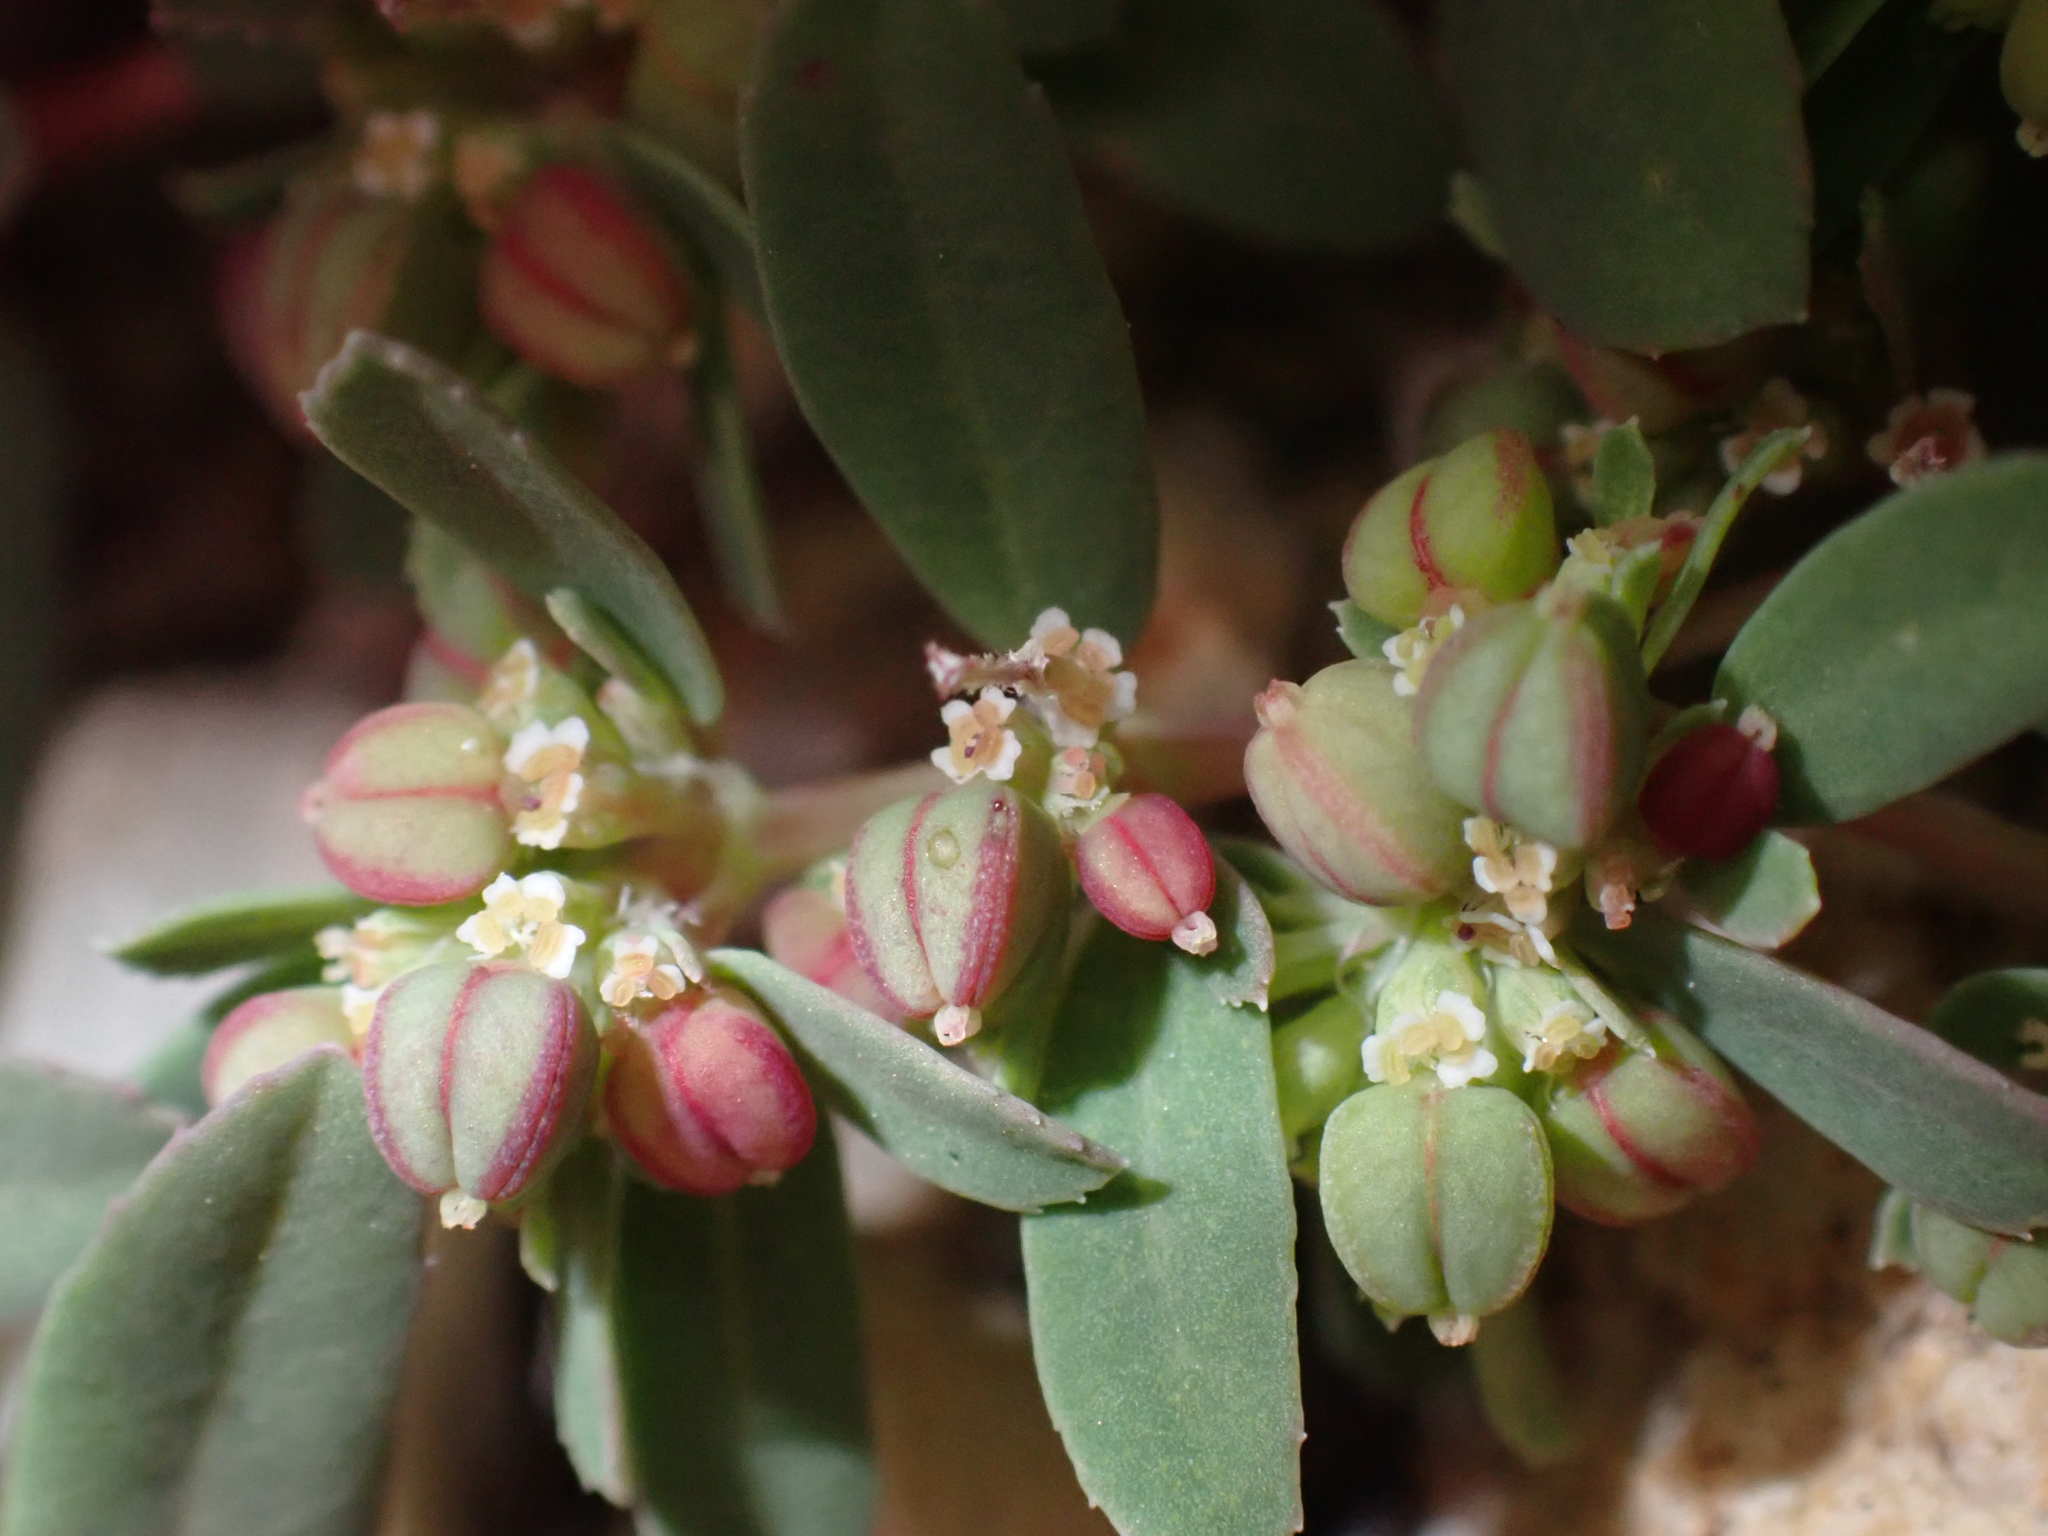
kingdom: Plantae
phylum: Tracheophyta
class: Magnoliopsida
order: Malpighiales
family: Euphorbiaceae
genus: Euphorbia
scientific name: Euphorbia serpillifolia
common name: Thyme-leaf spurge
